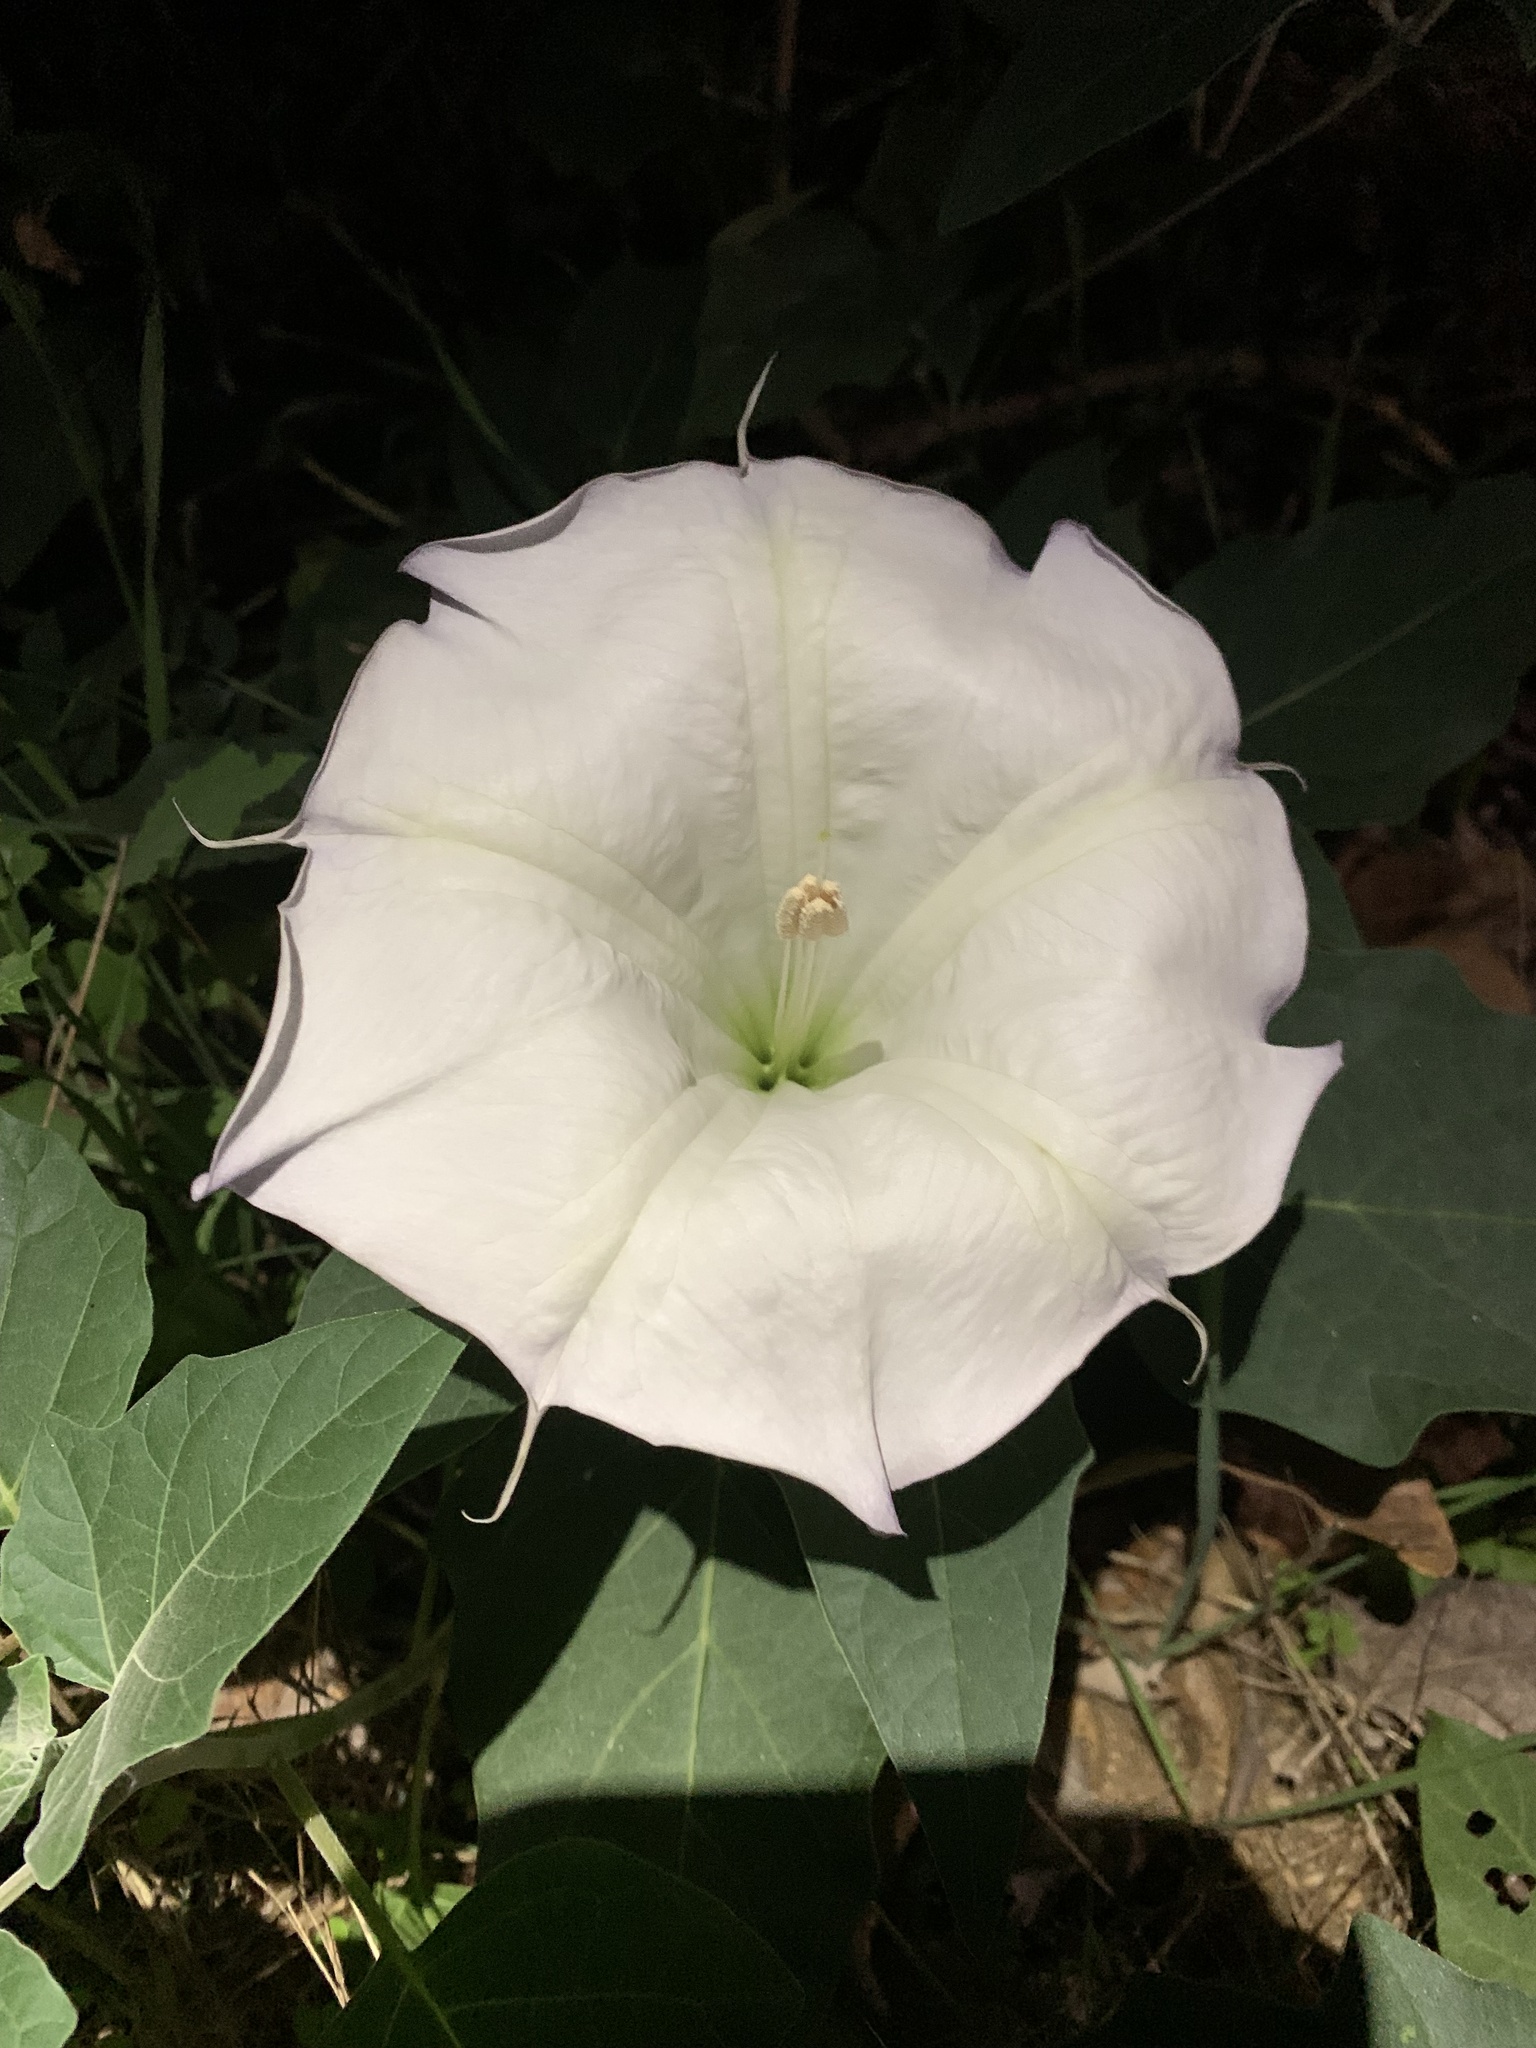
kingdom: Plantae
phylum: Tracheophyta
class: Magnoliopsida
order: Solanales
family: Solanaceae
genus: Datura
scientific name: Datura wrightii
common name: Sacred thorn-apple
